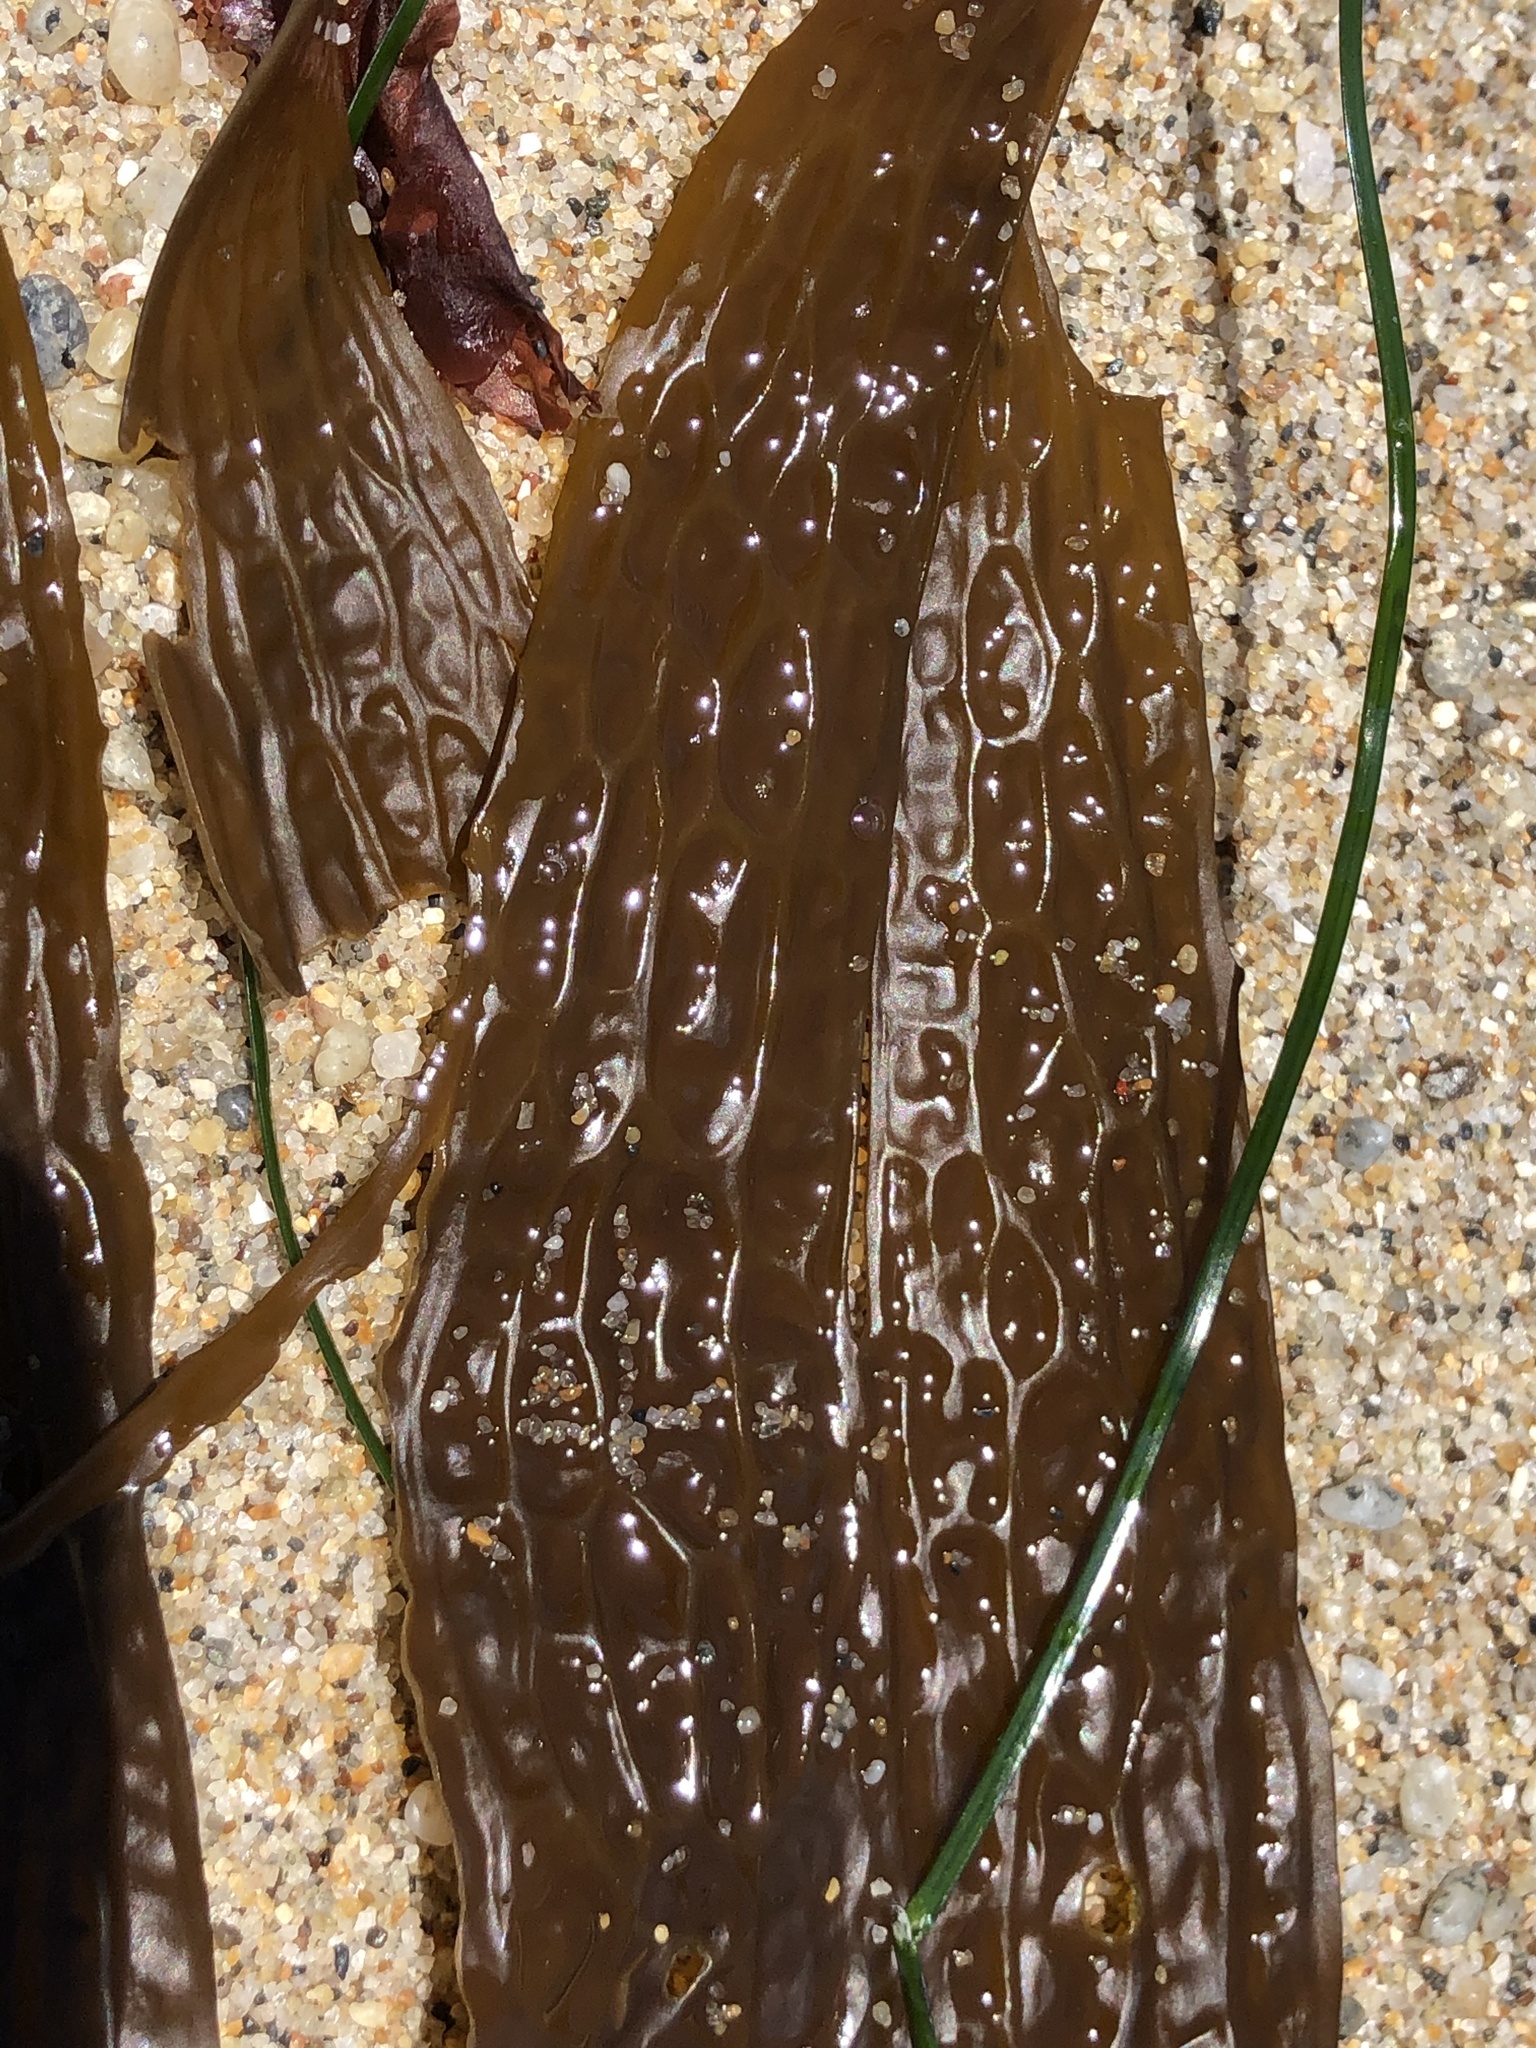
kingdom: Chromista
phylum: Ochrophyta
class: Phaeophyceae
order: Laminariales
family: Costariaceae
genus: Dictyoneurum
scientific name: Dictyoneurum californicum
